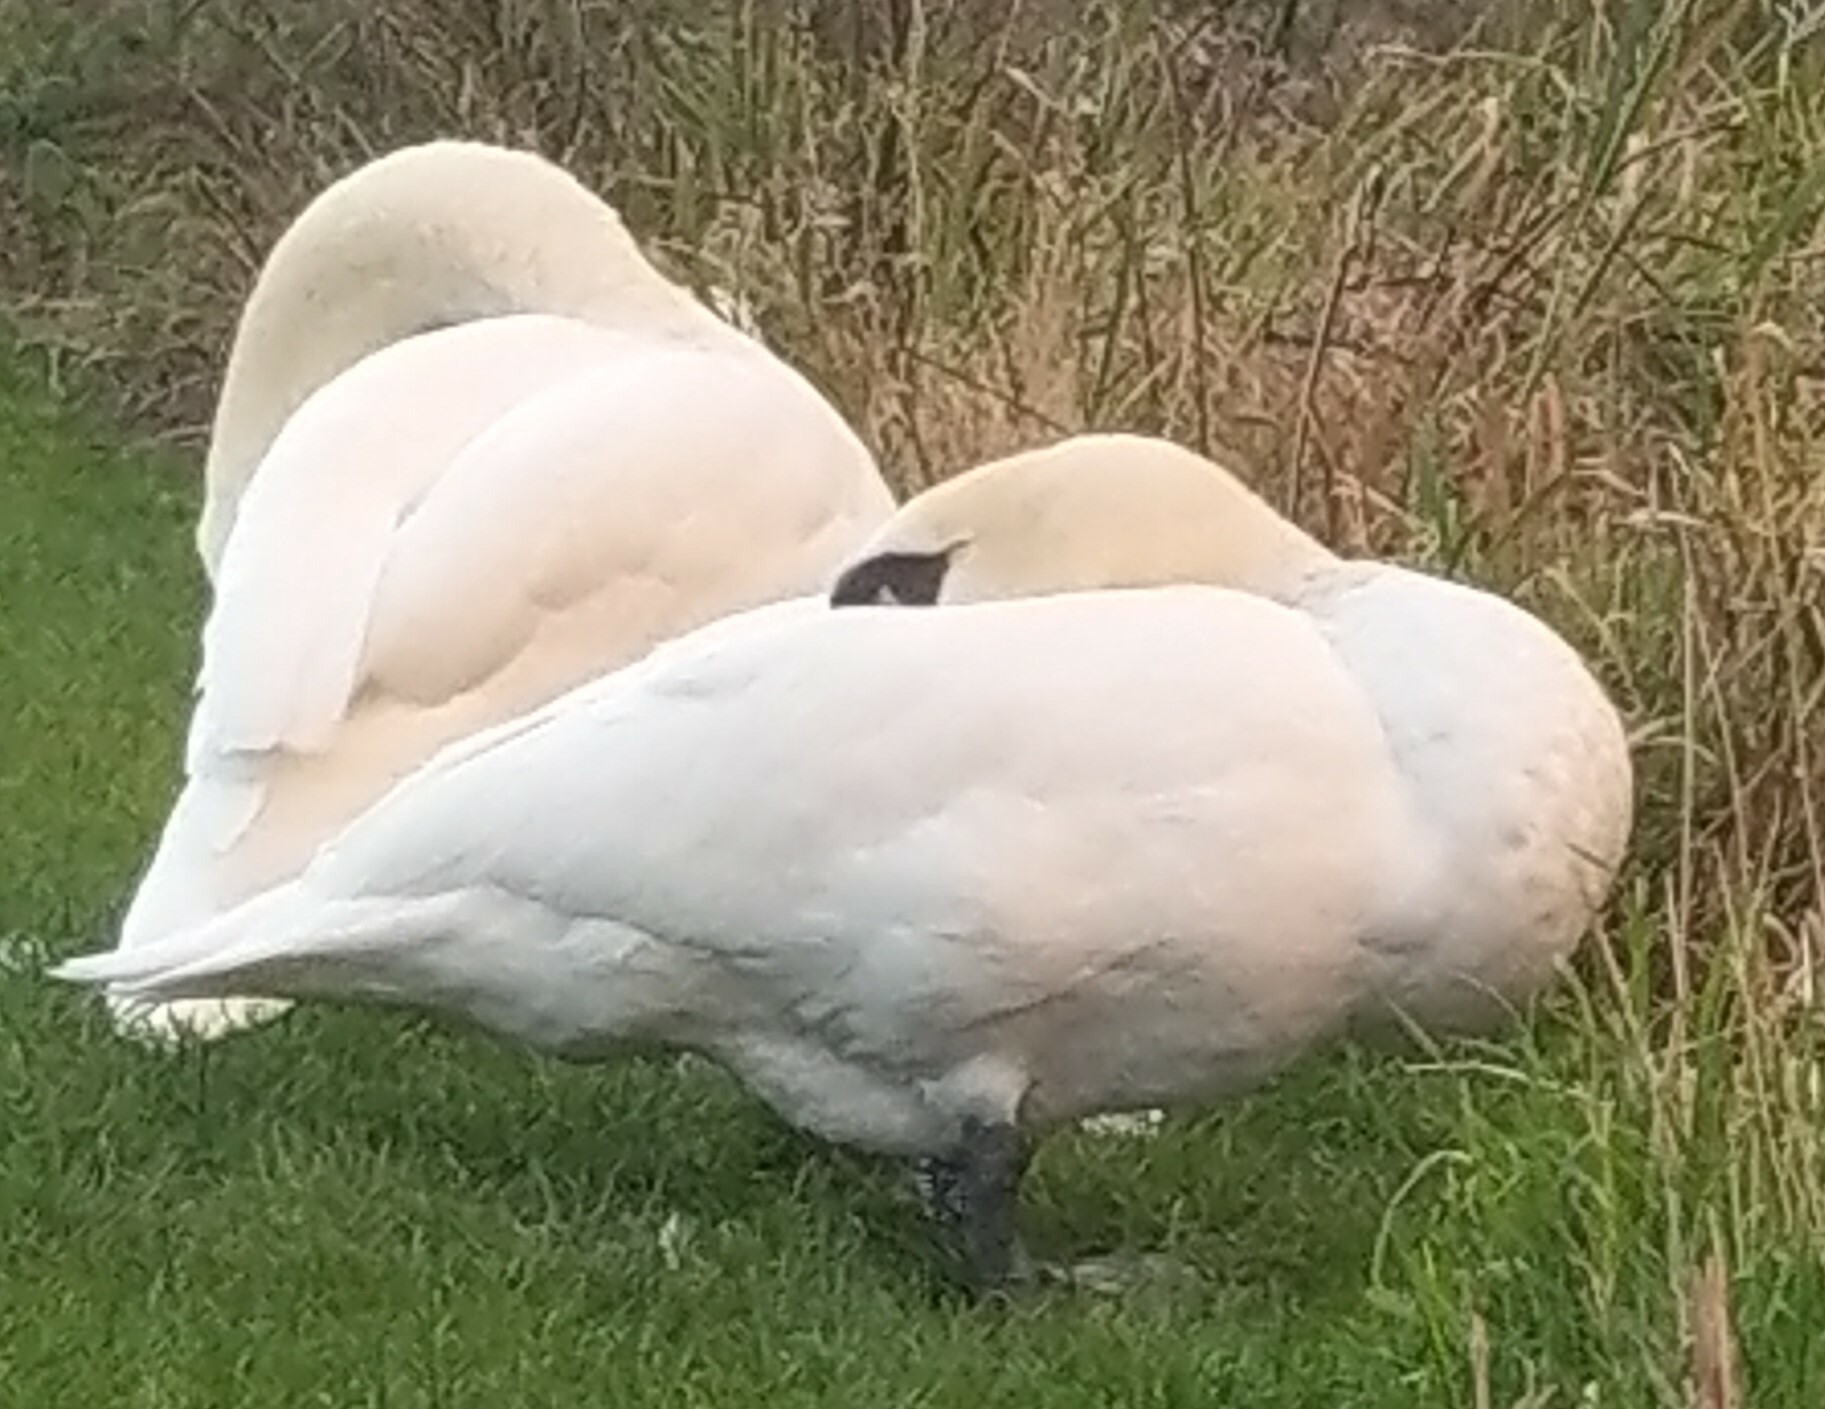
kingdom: Animalia
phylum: Chordata
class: Aves
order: Anseriformes
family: Anatidae
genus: Cygnus
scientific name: Cygnus olor
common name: Mute swan
